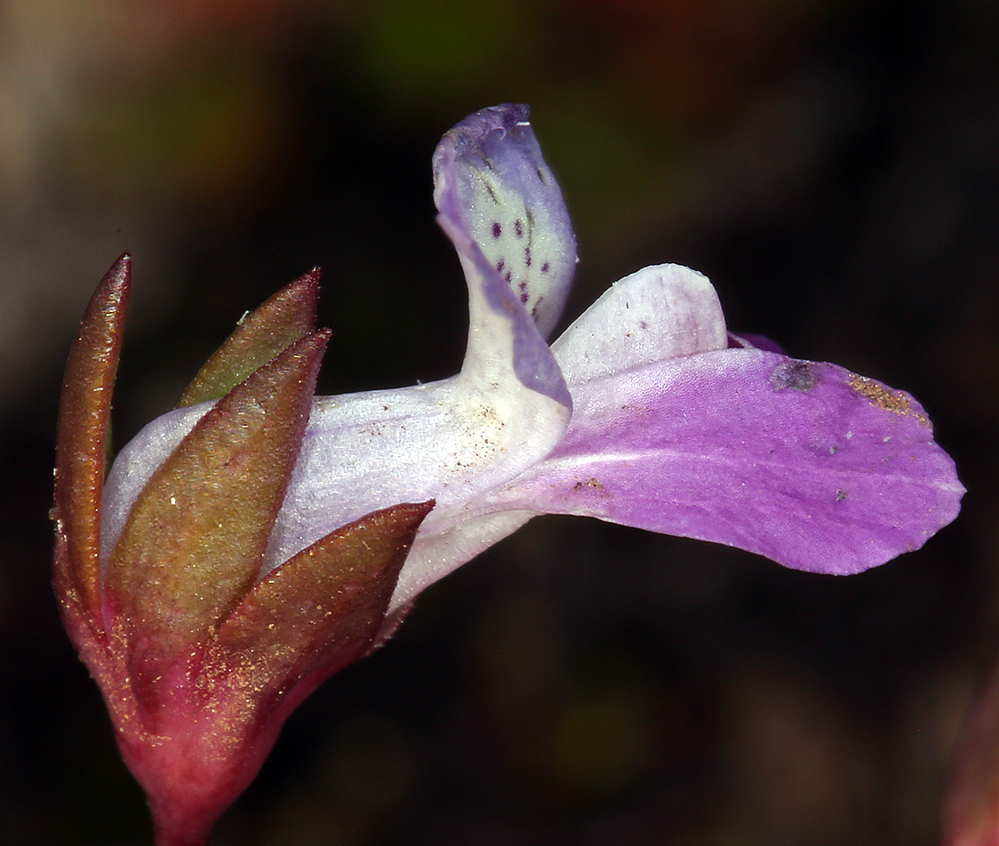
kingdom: Plantae
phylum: Tracheophyta
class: Magnoliopsida
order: Lamiales
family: Plantaginaceae
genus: Collinsia
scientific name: Collinsia sparsiflora
